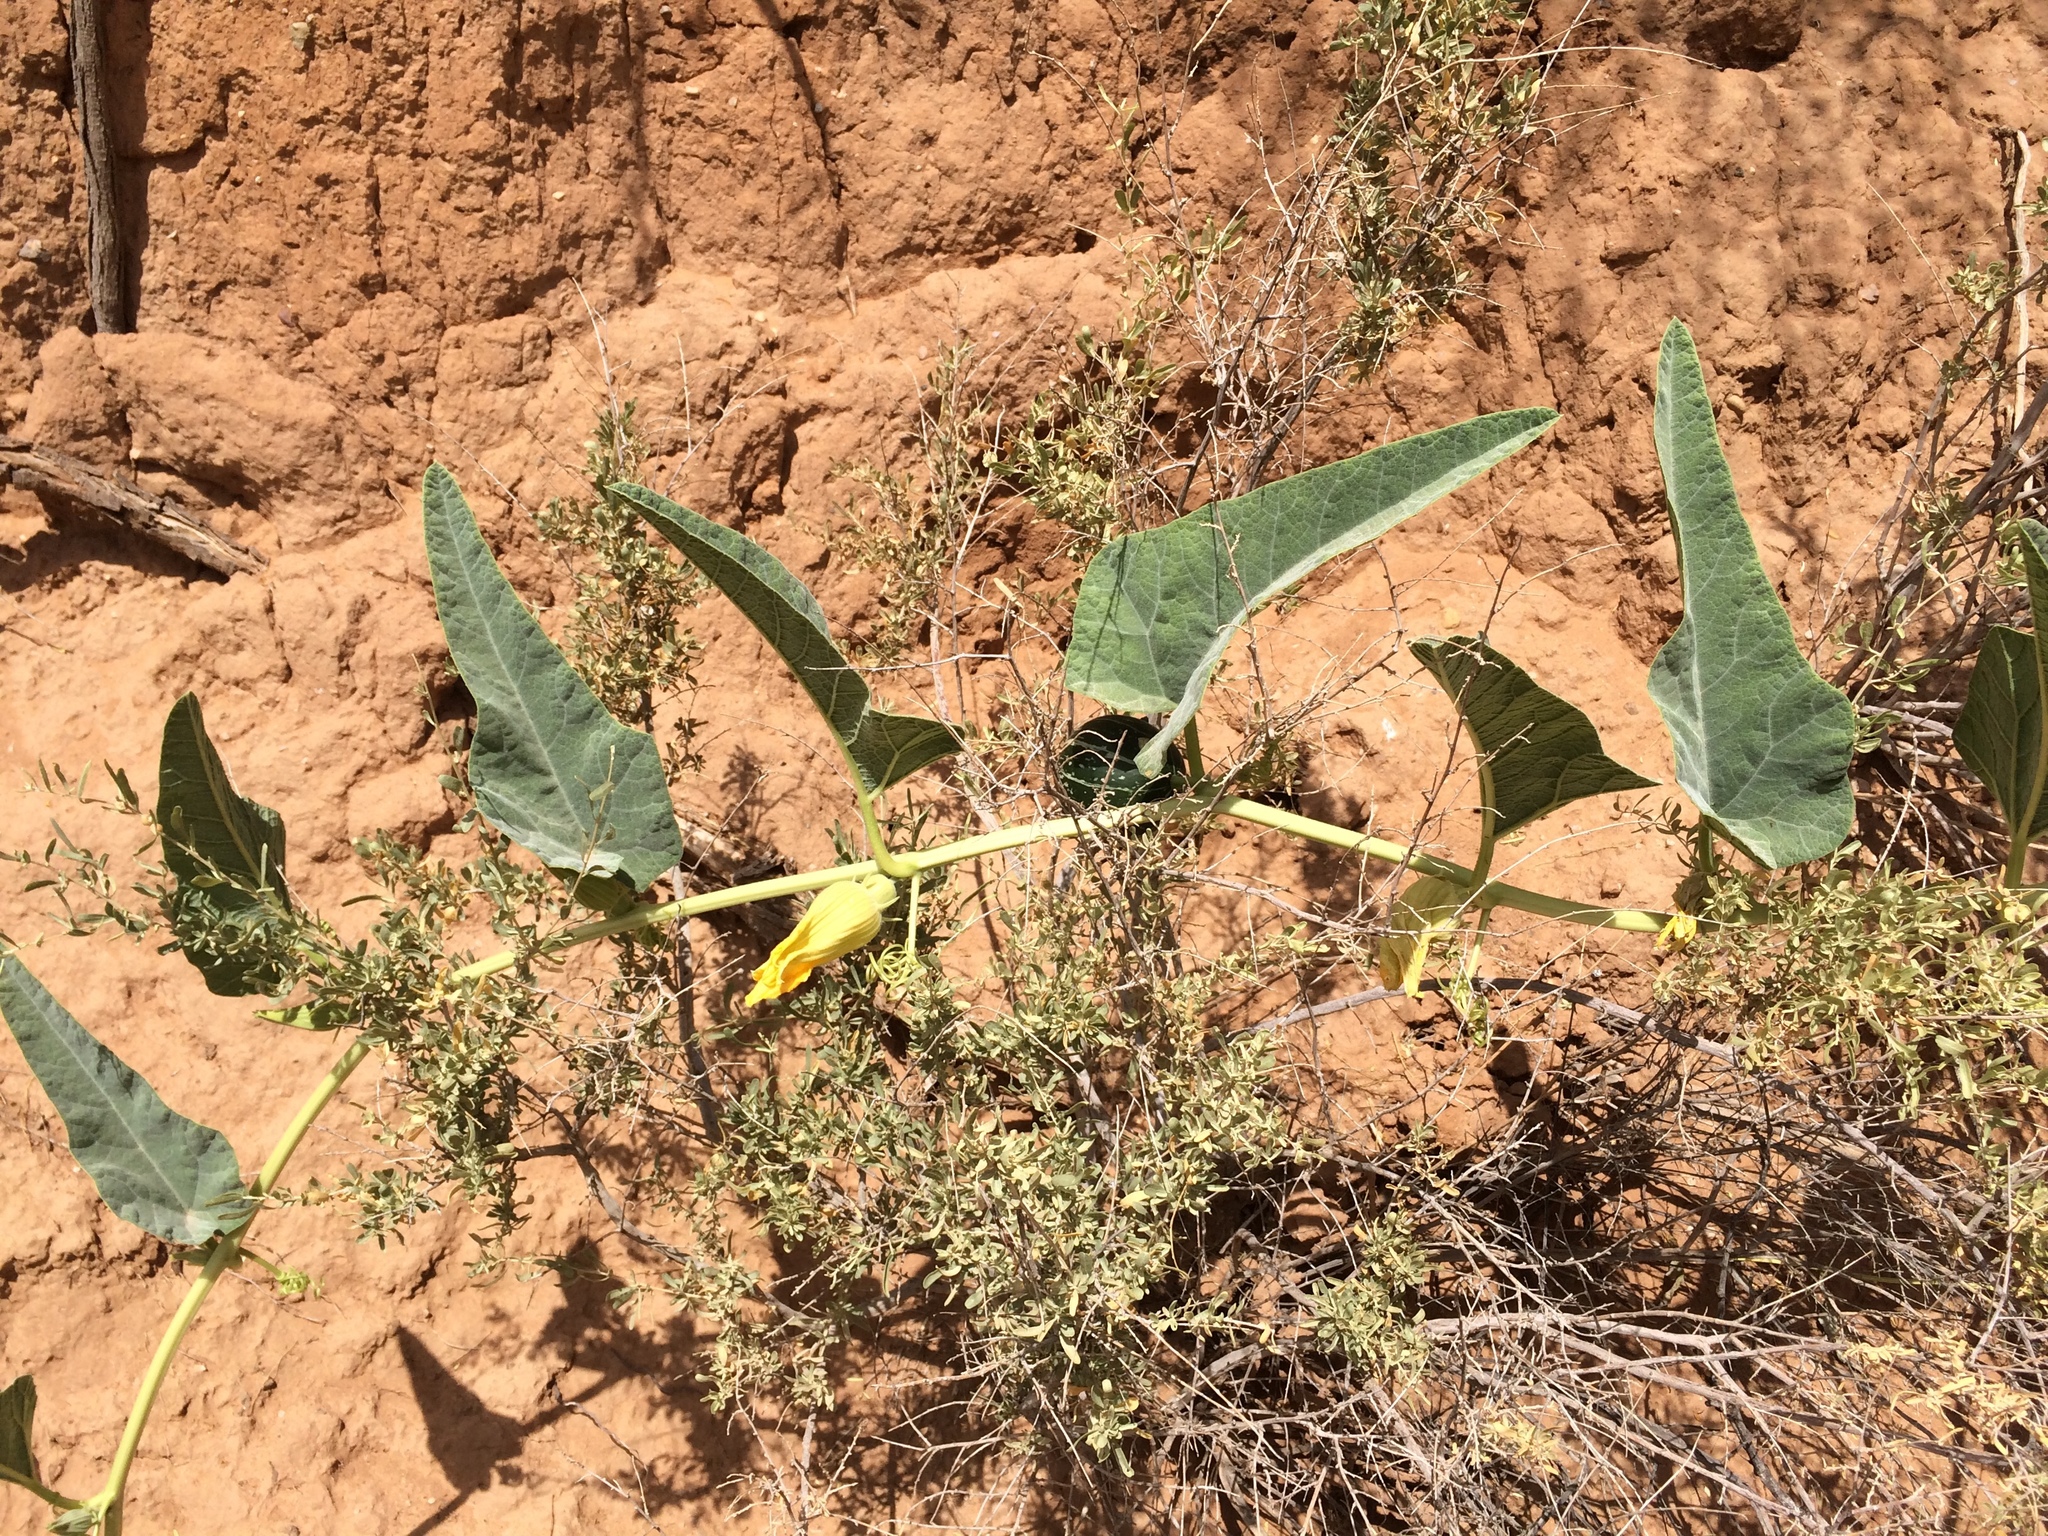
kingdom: Plantae
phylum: Tracheophyta
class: Magnoliopsida
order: Cucurbitales
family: Cucurbitaceae
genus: Cucurbita
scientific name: Cucurbita foetidissima
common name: Buffalo gourd
